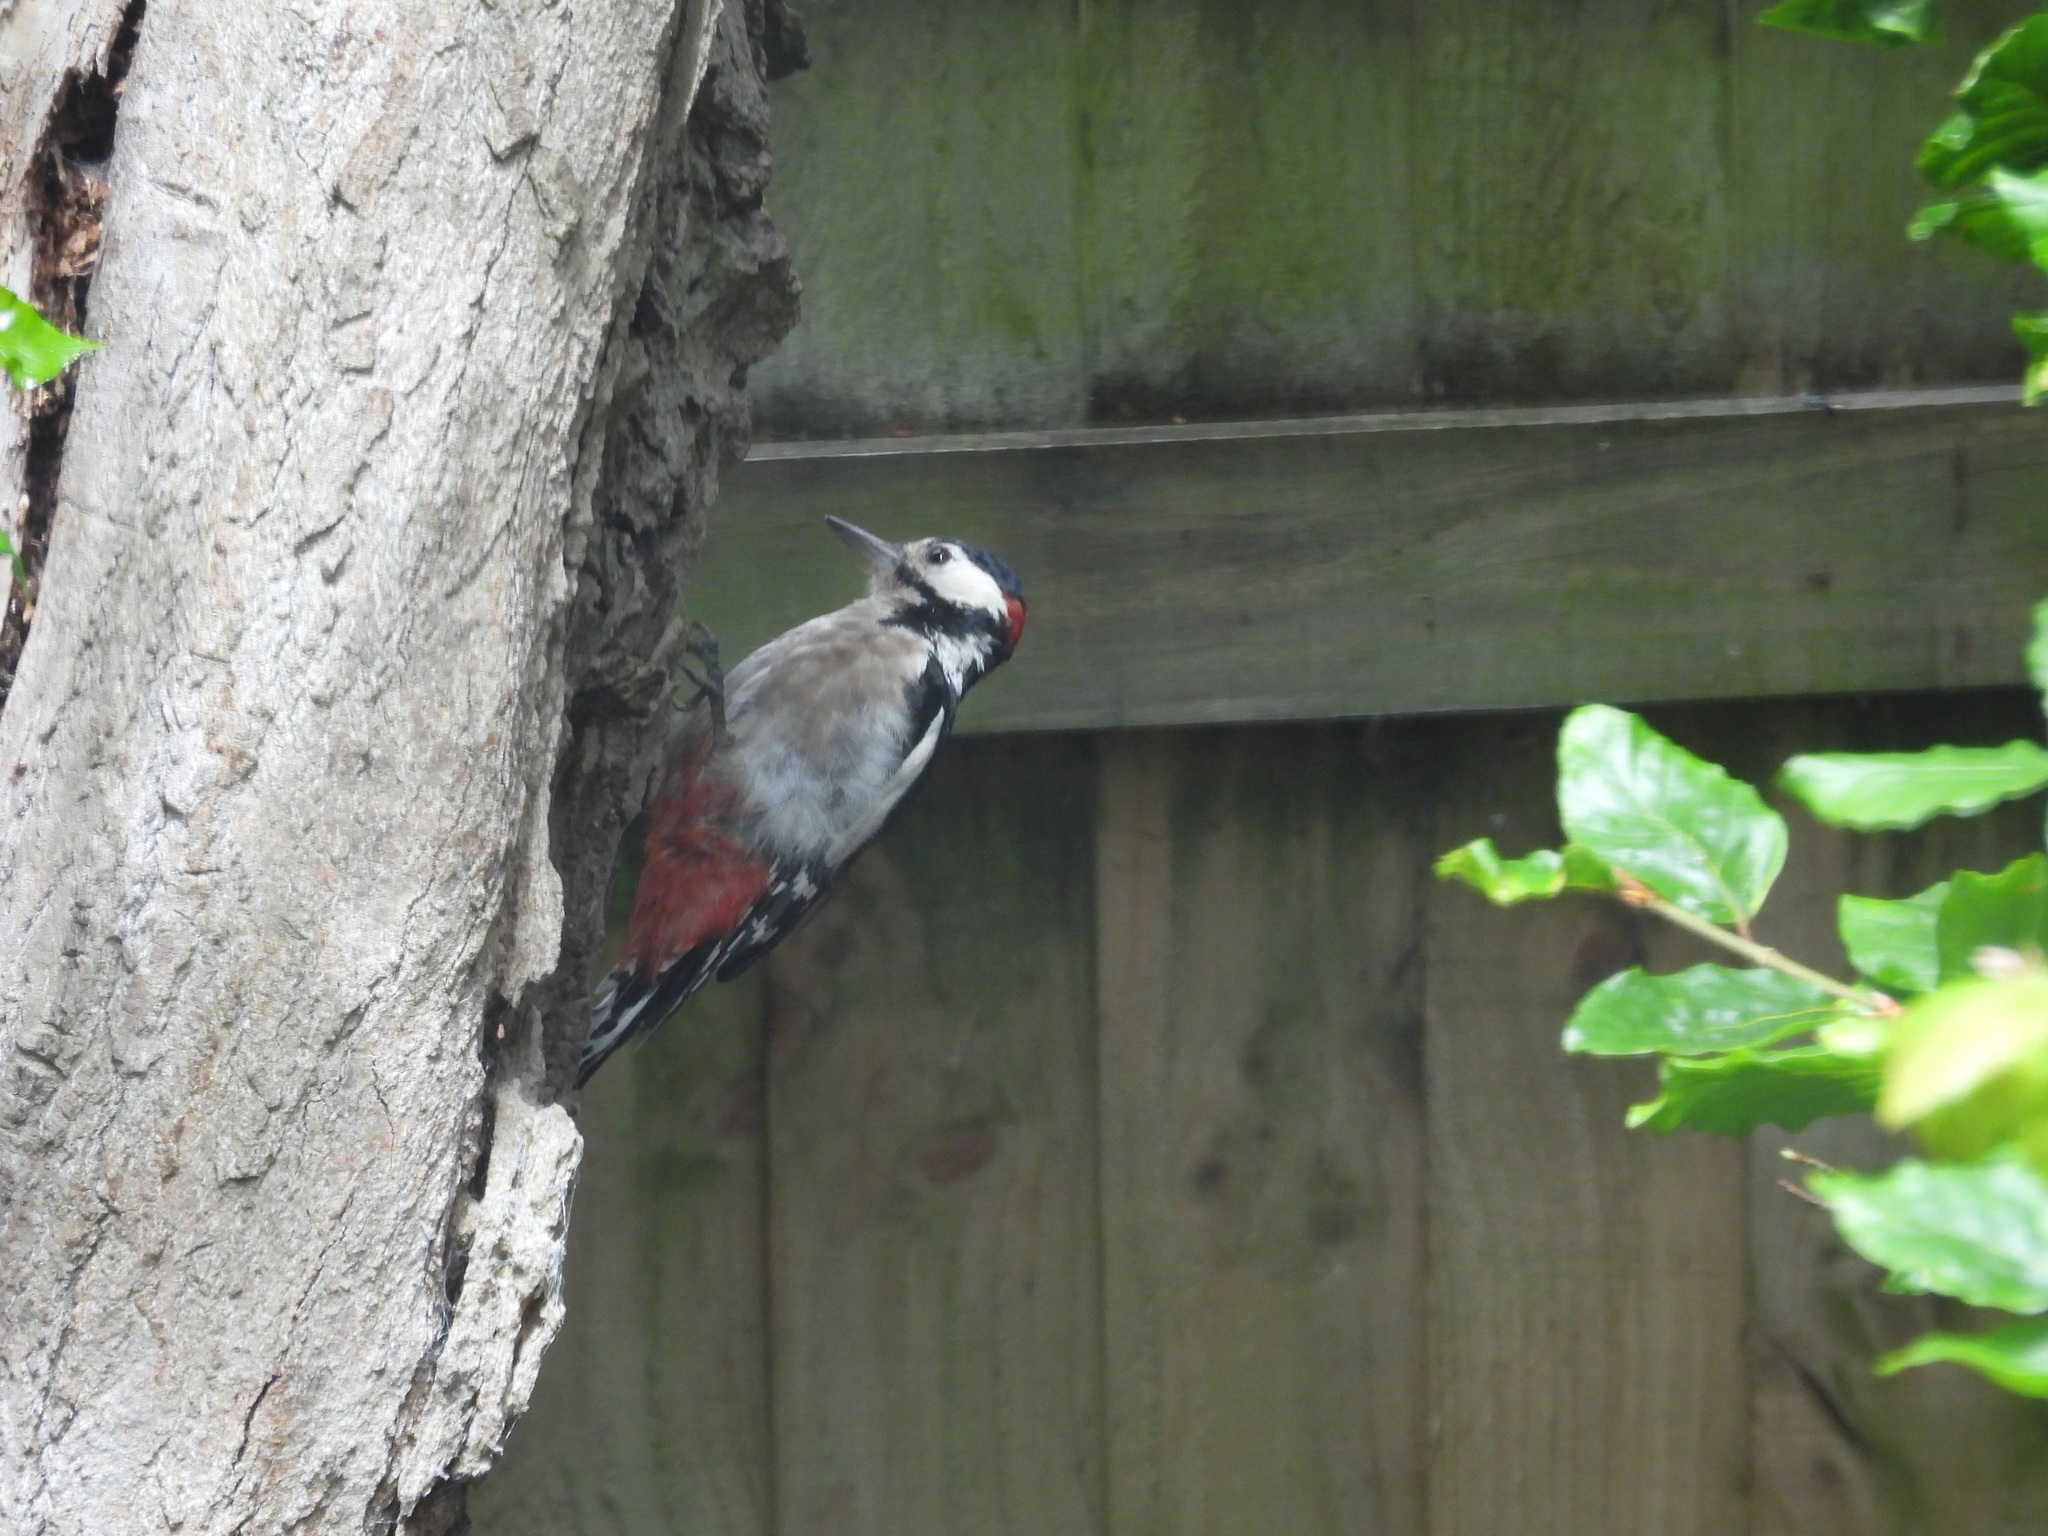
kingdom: Animalia
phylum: Chordata
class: Aves
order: Piciformes
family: Picidae
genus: Dendrocopos
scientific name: Dendrocopos major
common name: Great spotted woodpecker
